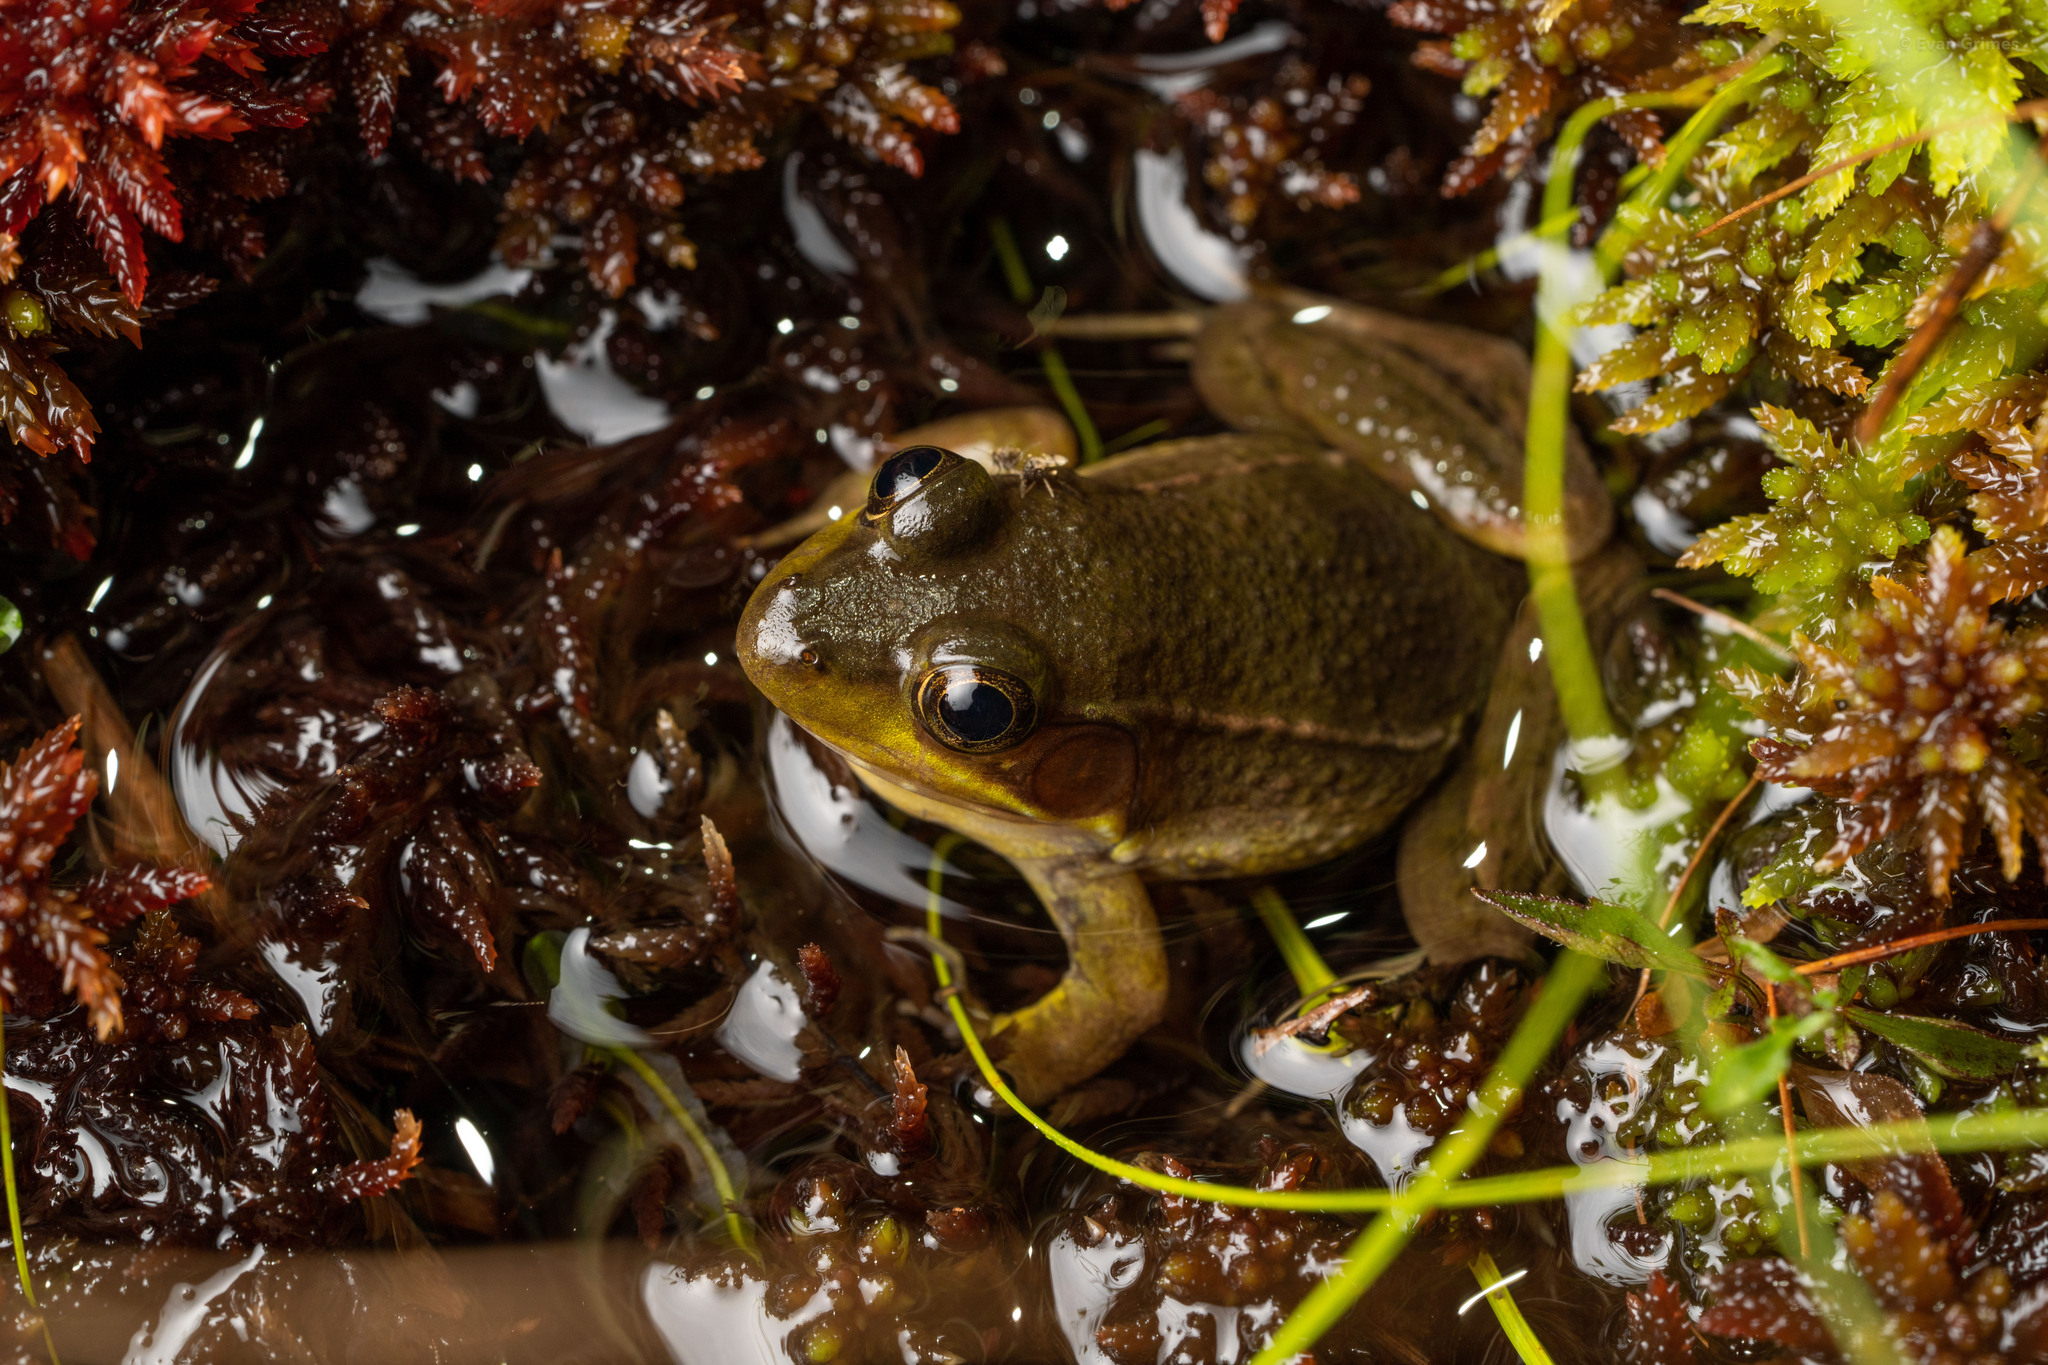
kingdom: Animalia
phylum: Chordata
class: Amphibia
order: Anura
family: Ranidae
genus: Lithobates
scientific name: Lithobates okaloosae
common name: Florida bog frog
